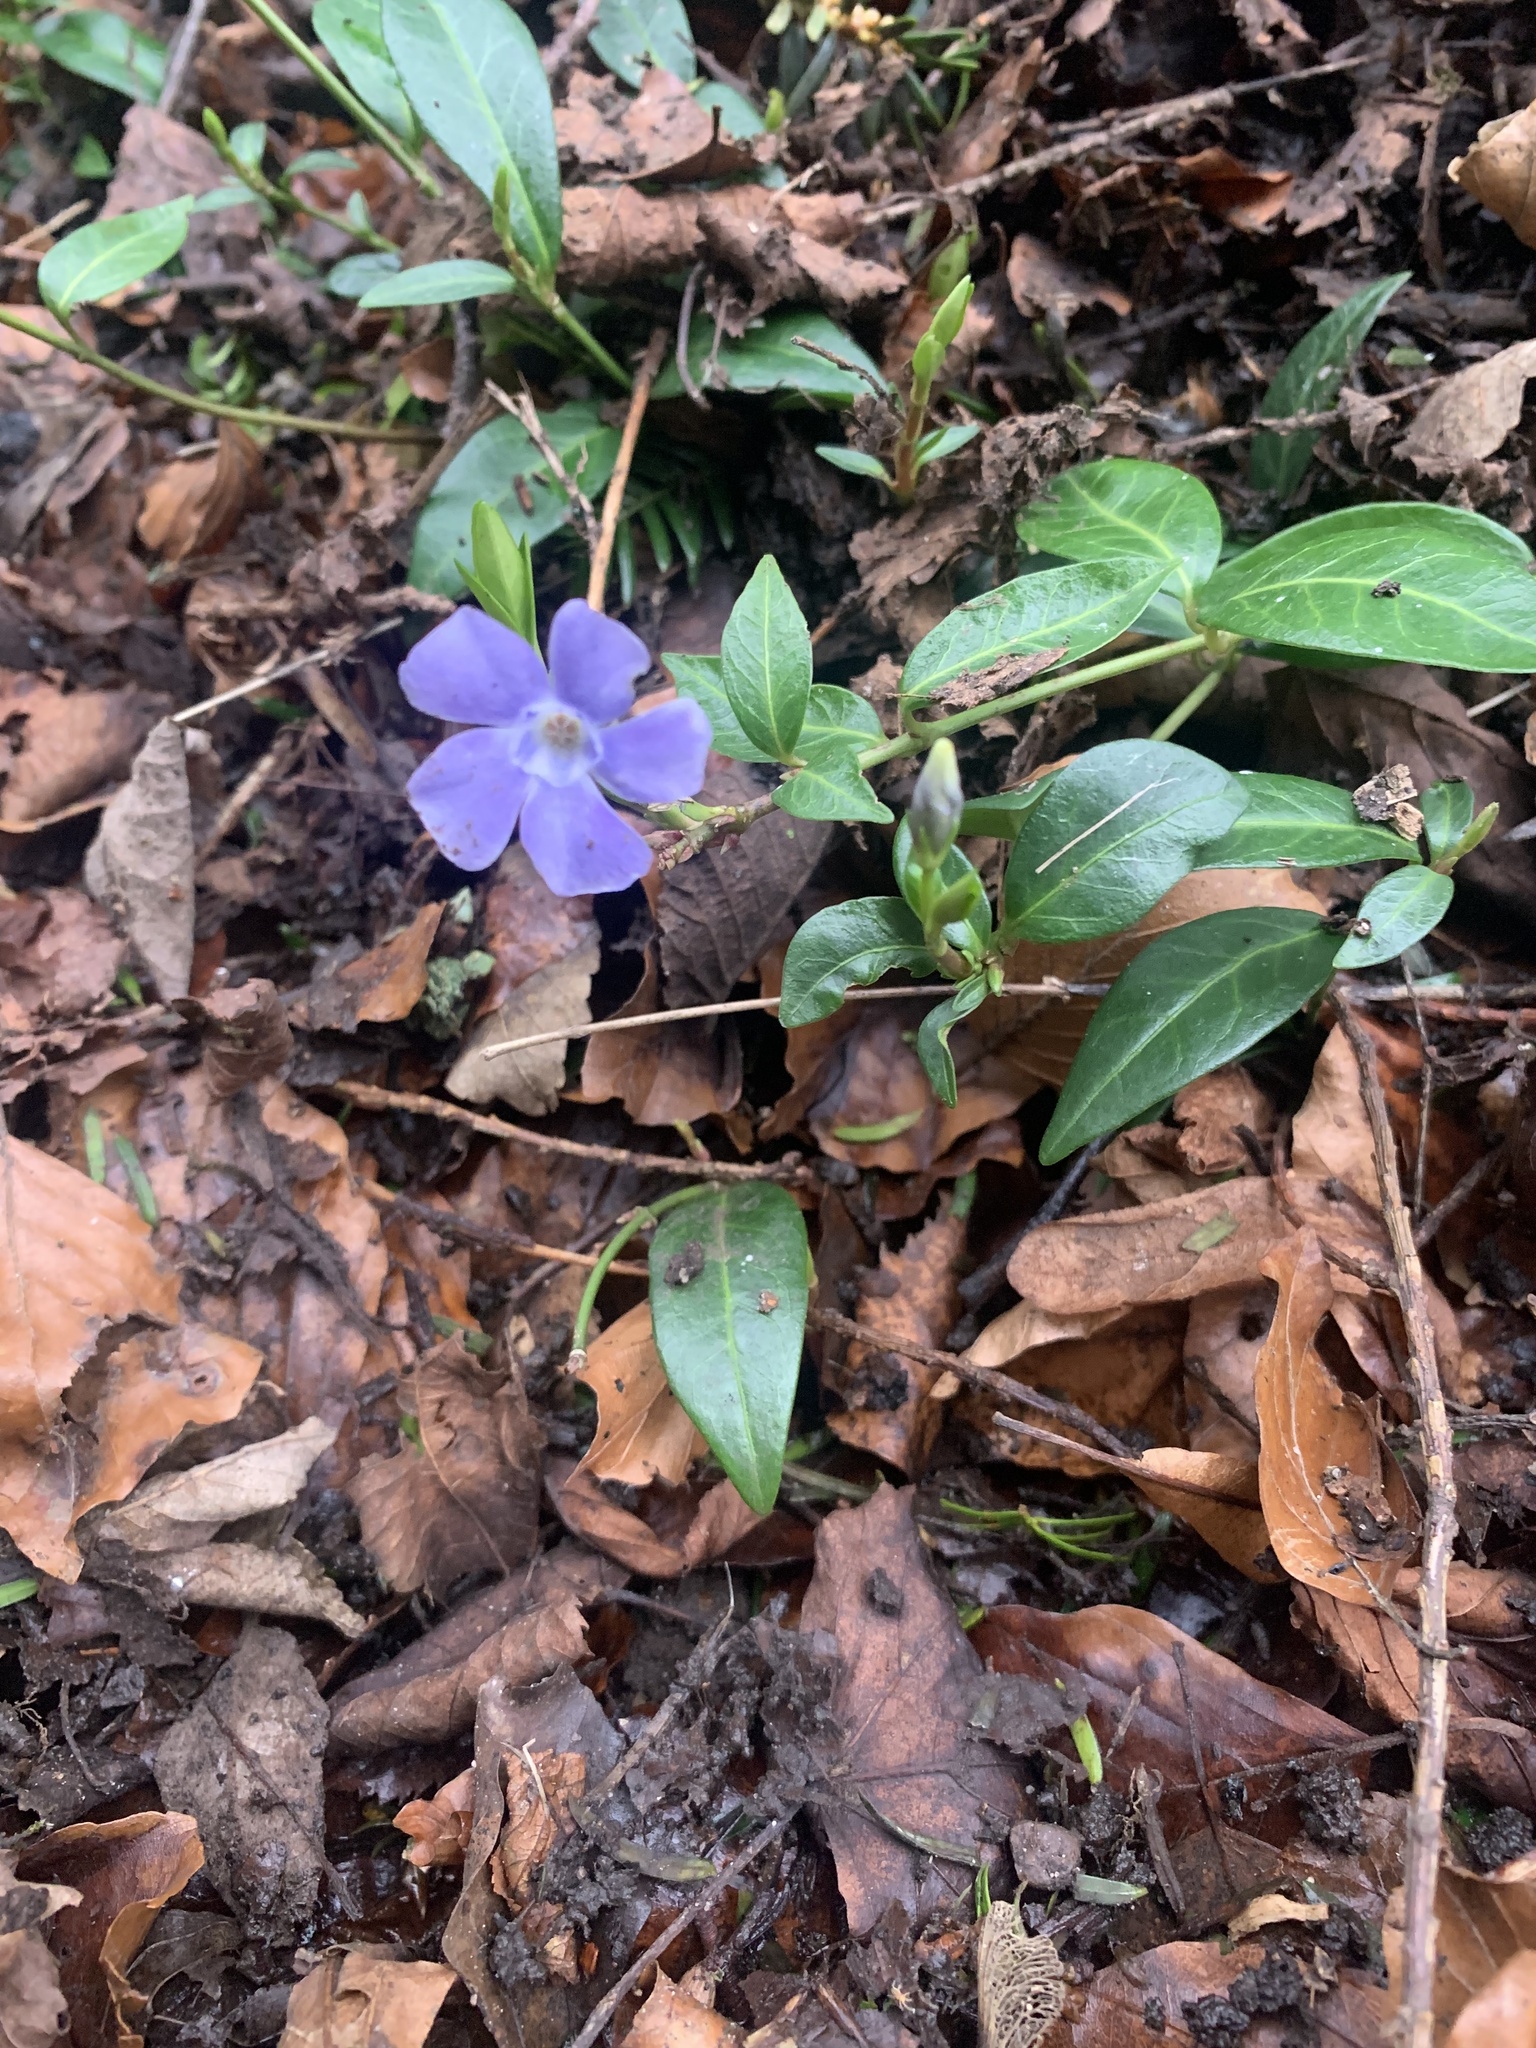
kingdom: Plantae
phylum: Tracheophyta
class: Magnoliopsida
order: Gentianales
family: Apocynaceae
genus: Vinca
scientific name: Vinca minor
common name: Lesser periwinkle
